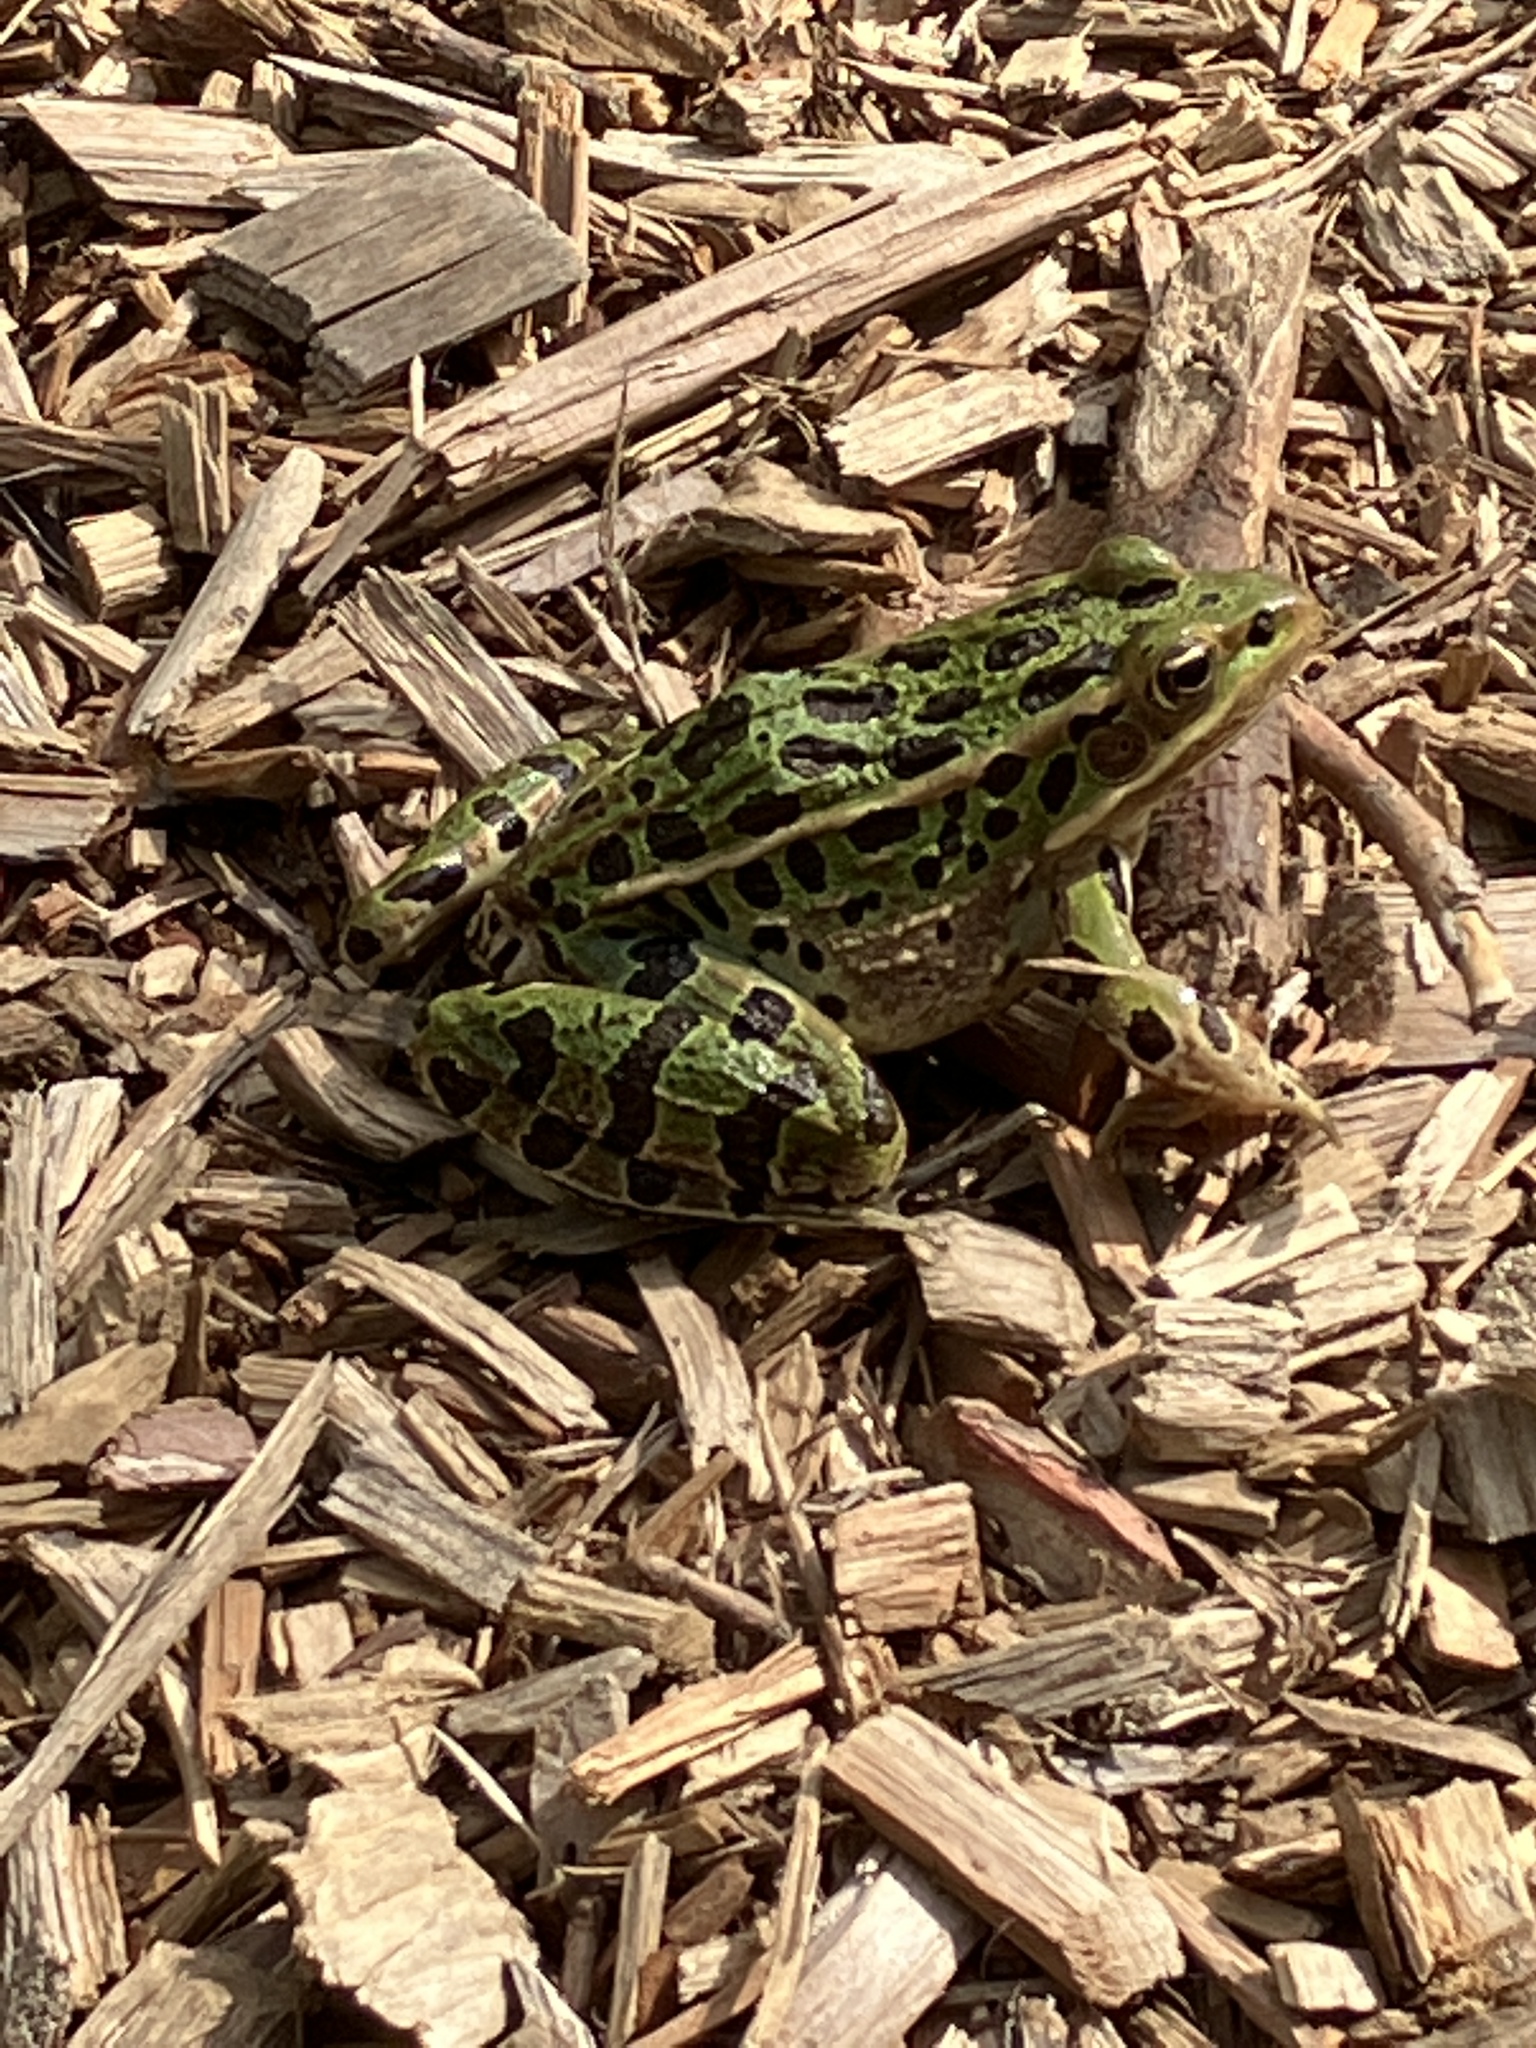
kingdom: Animalia
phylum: Chordata
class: Amphibia
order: Anura
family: Ranidae
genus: Lithobates
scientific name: Lithobates pipiens
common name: Northern leopard frog
